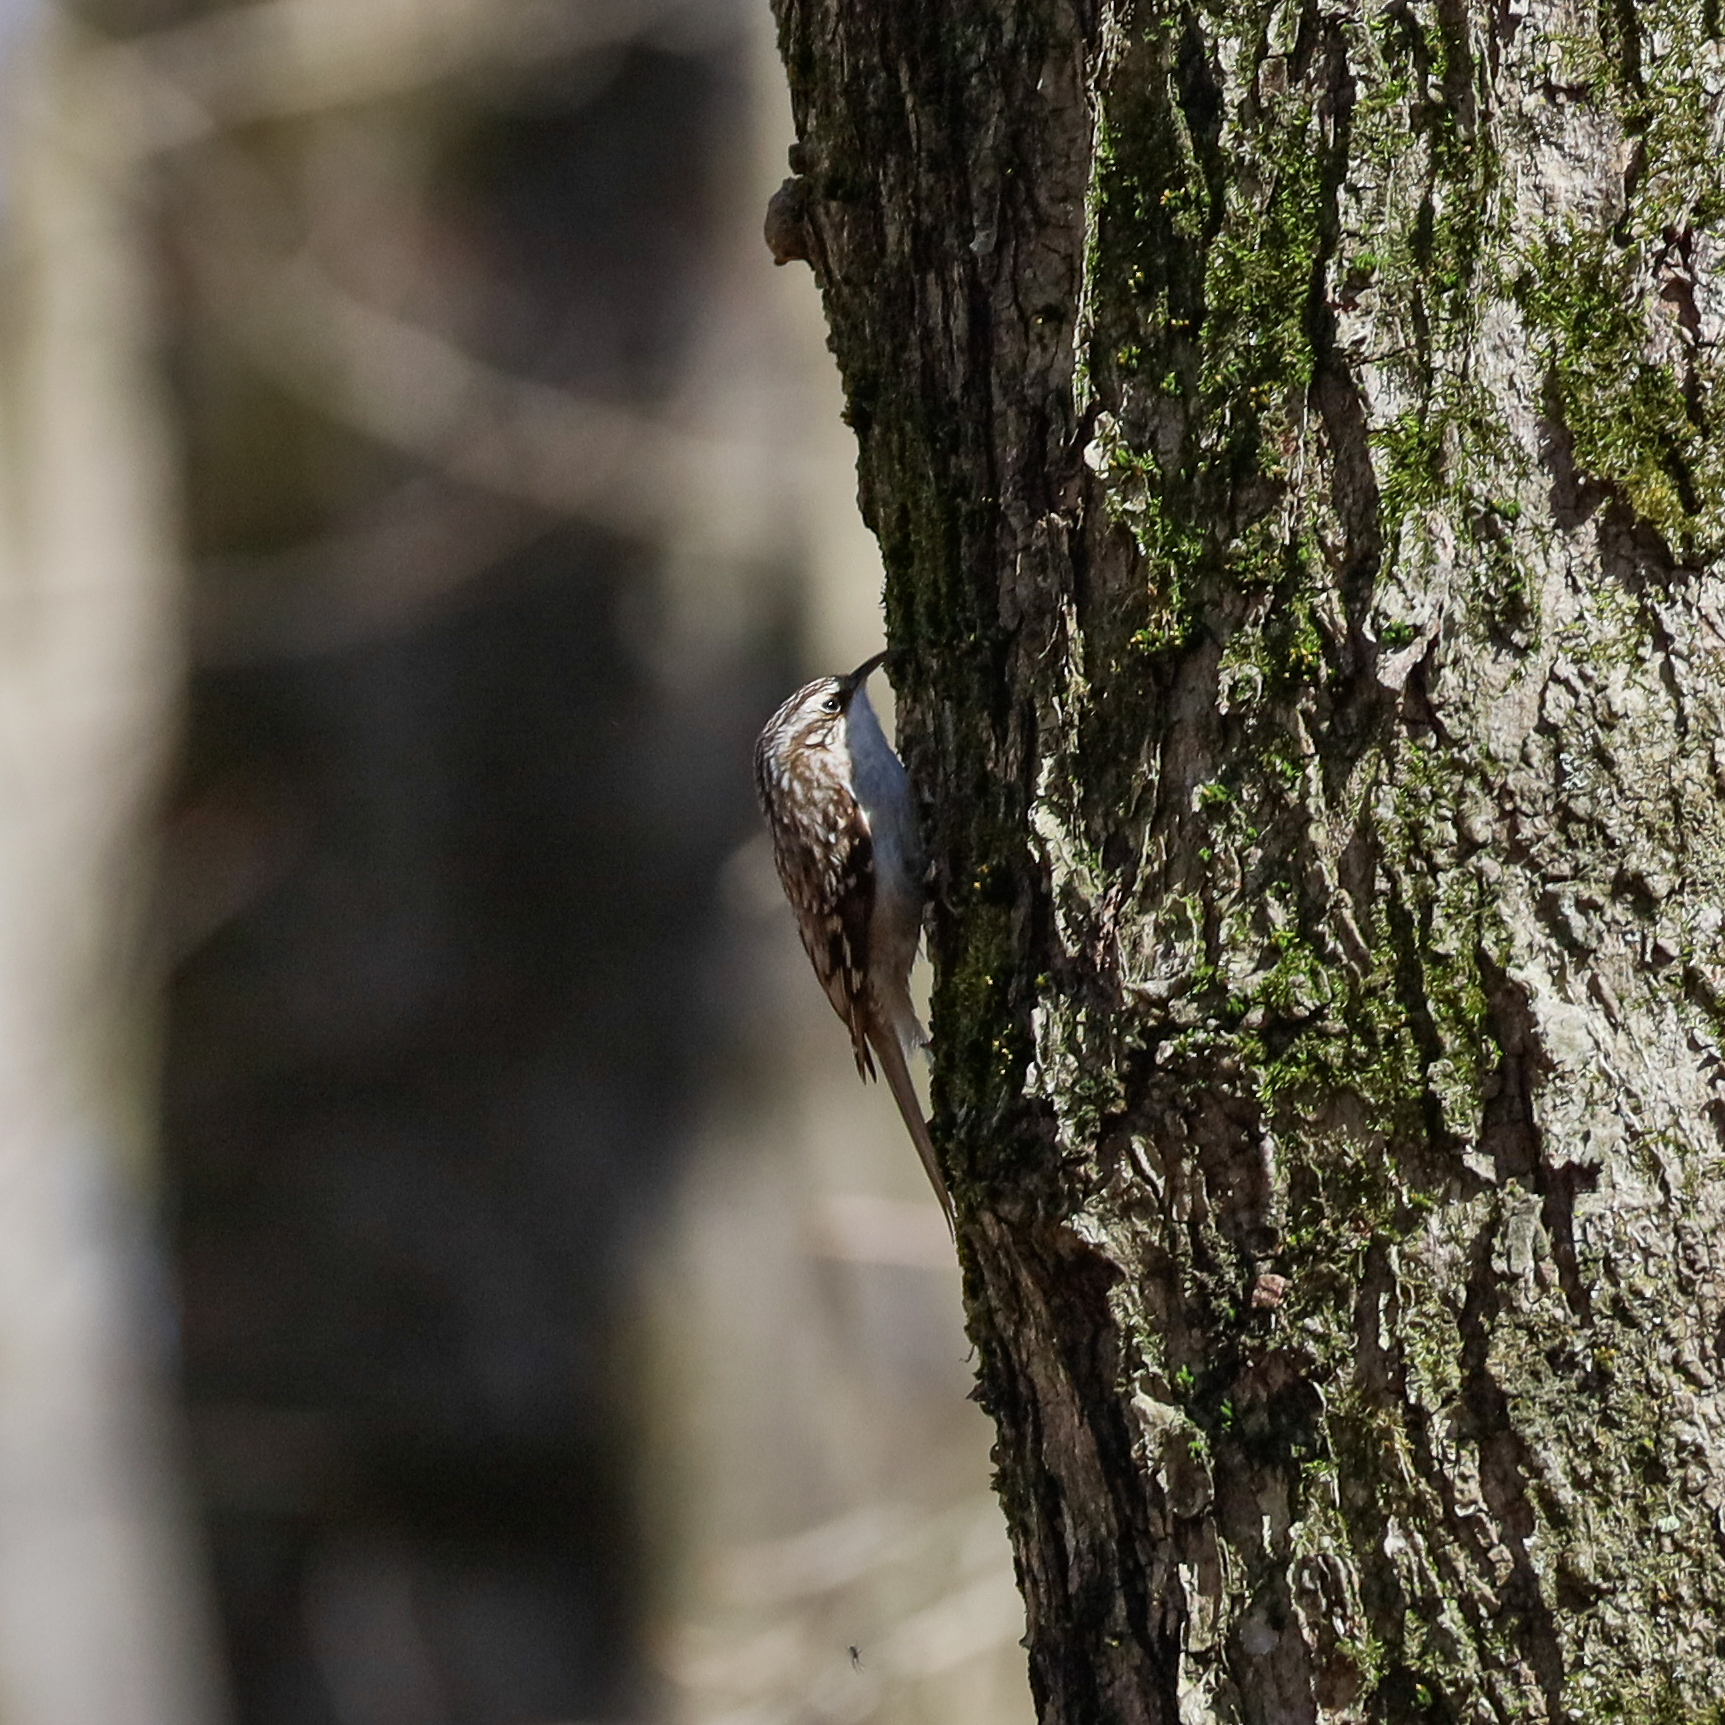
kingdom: Animalia
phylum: Chordata
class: Aves
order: Passeriformes
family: Certhiidae
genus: Certhia
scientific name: Certhia americana
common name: Brown creeper
